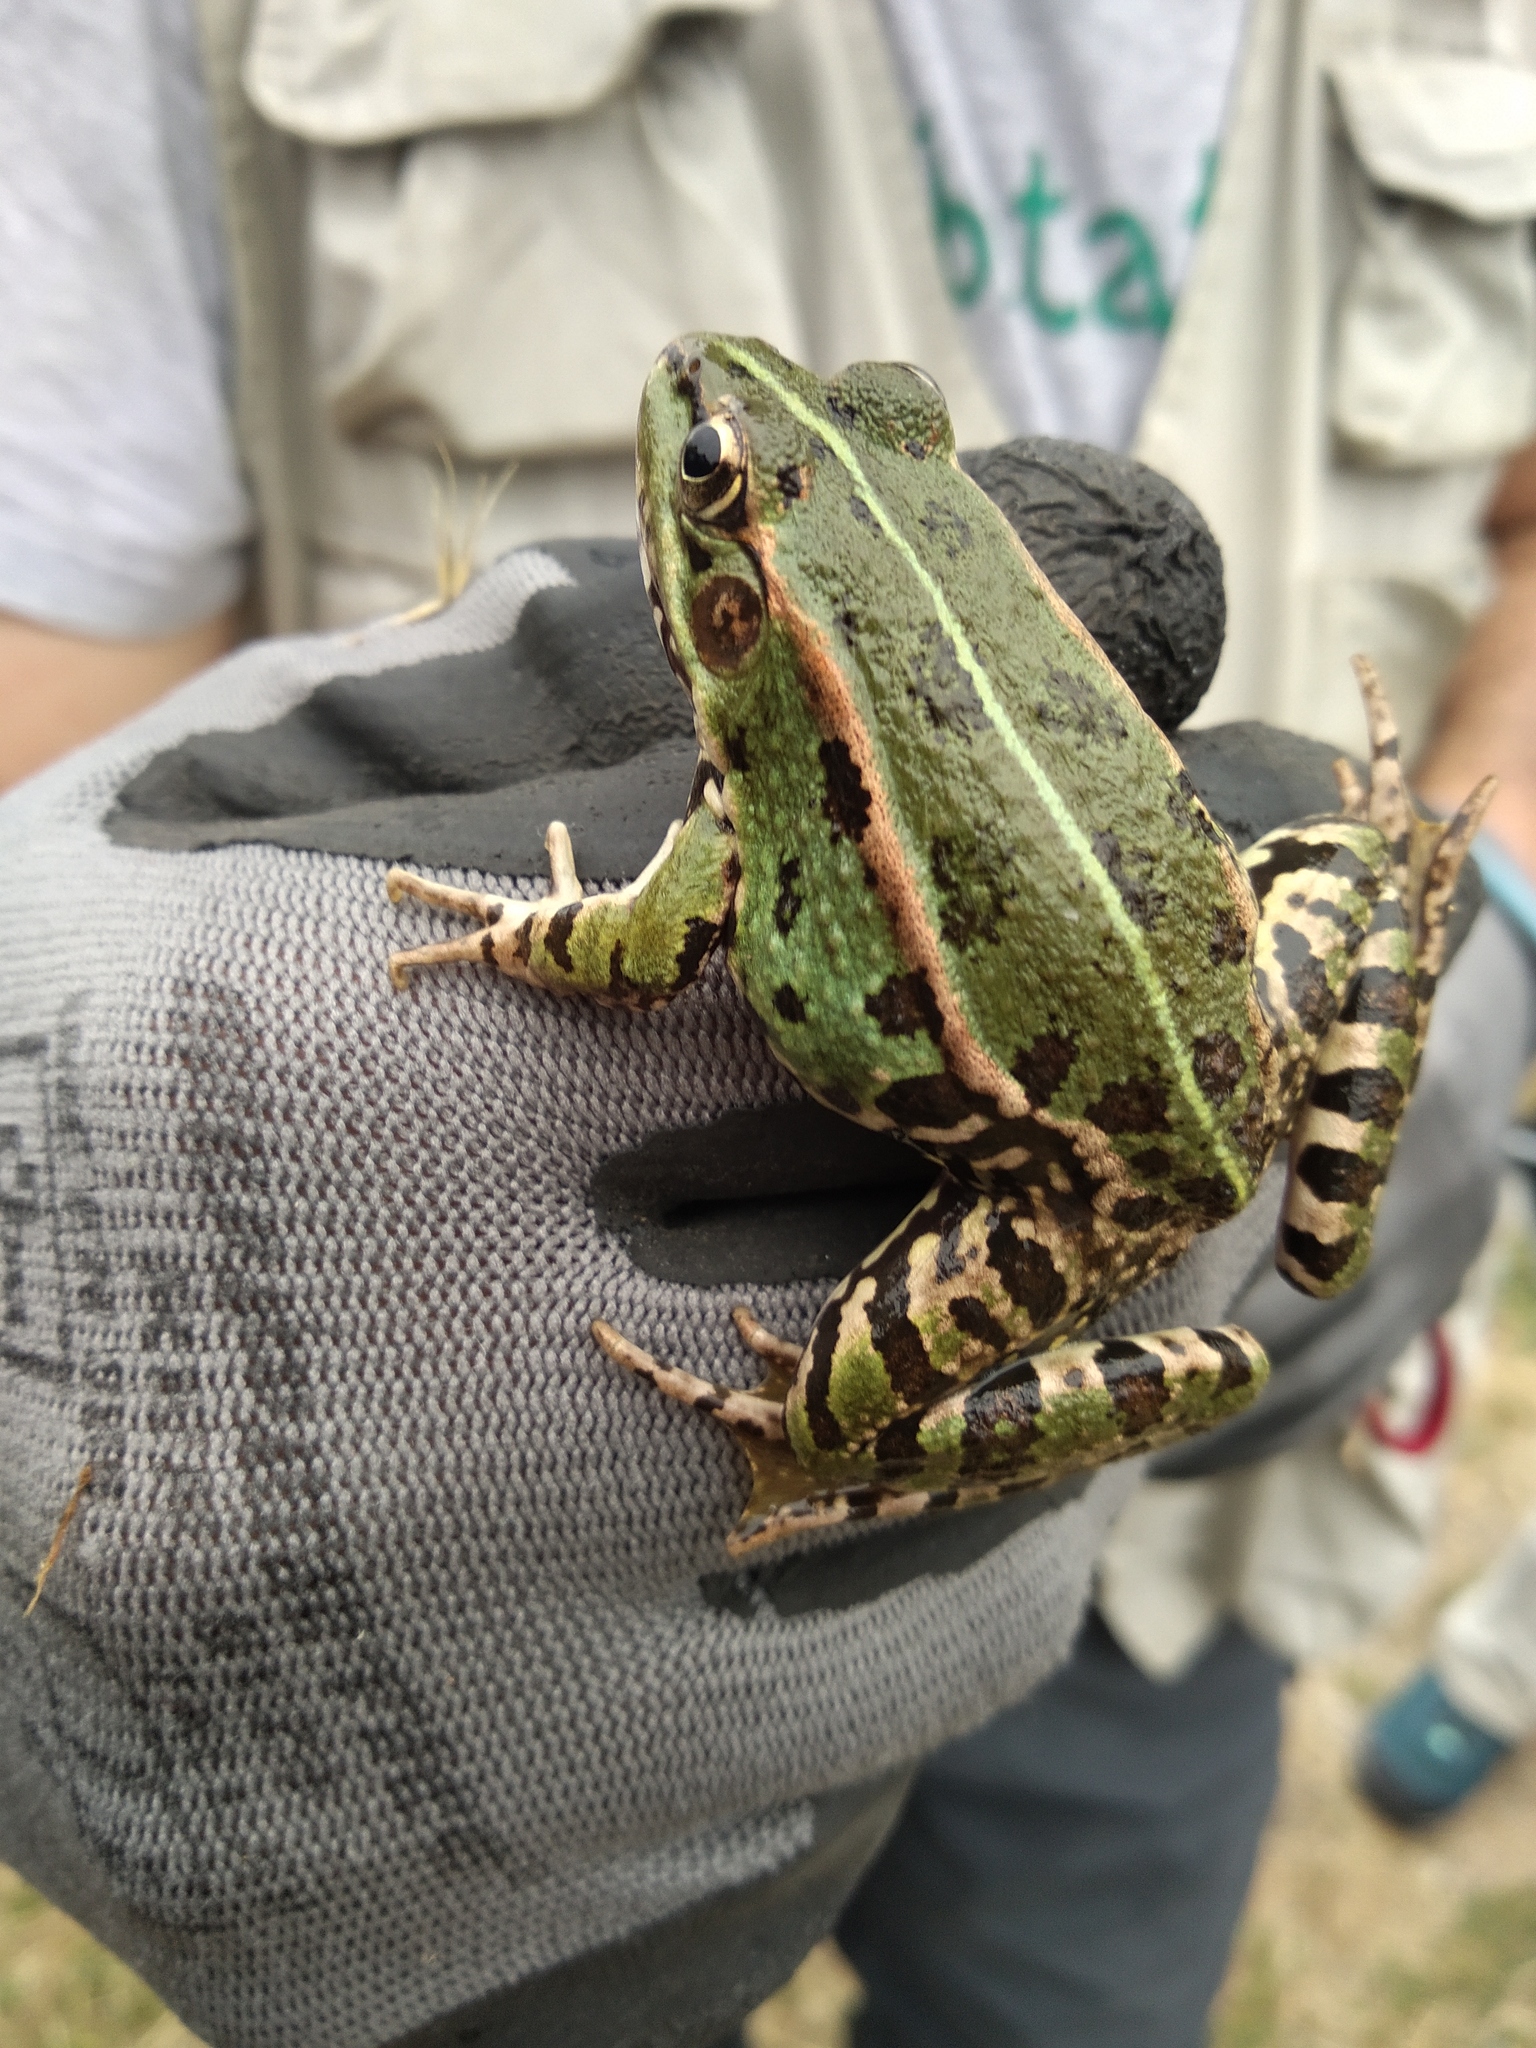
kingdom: Animalia
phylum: Chordata
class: Amphibia
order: Anura
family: Ranidae
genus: Pelophylax
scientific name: Pelophylax perezi
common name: Perez's frog
